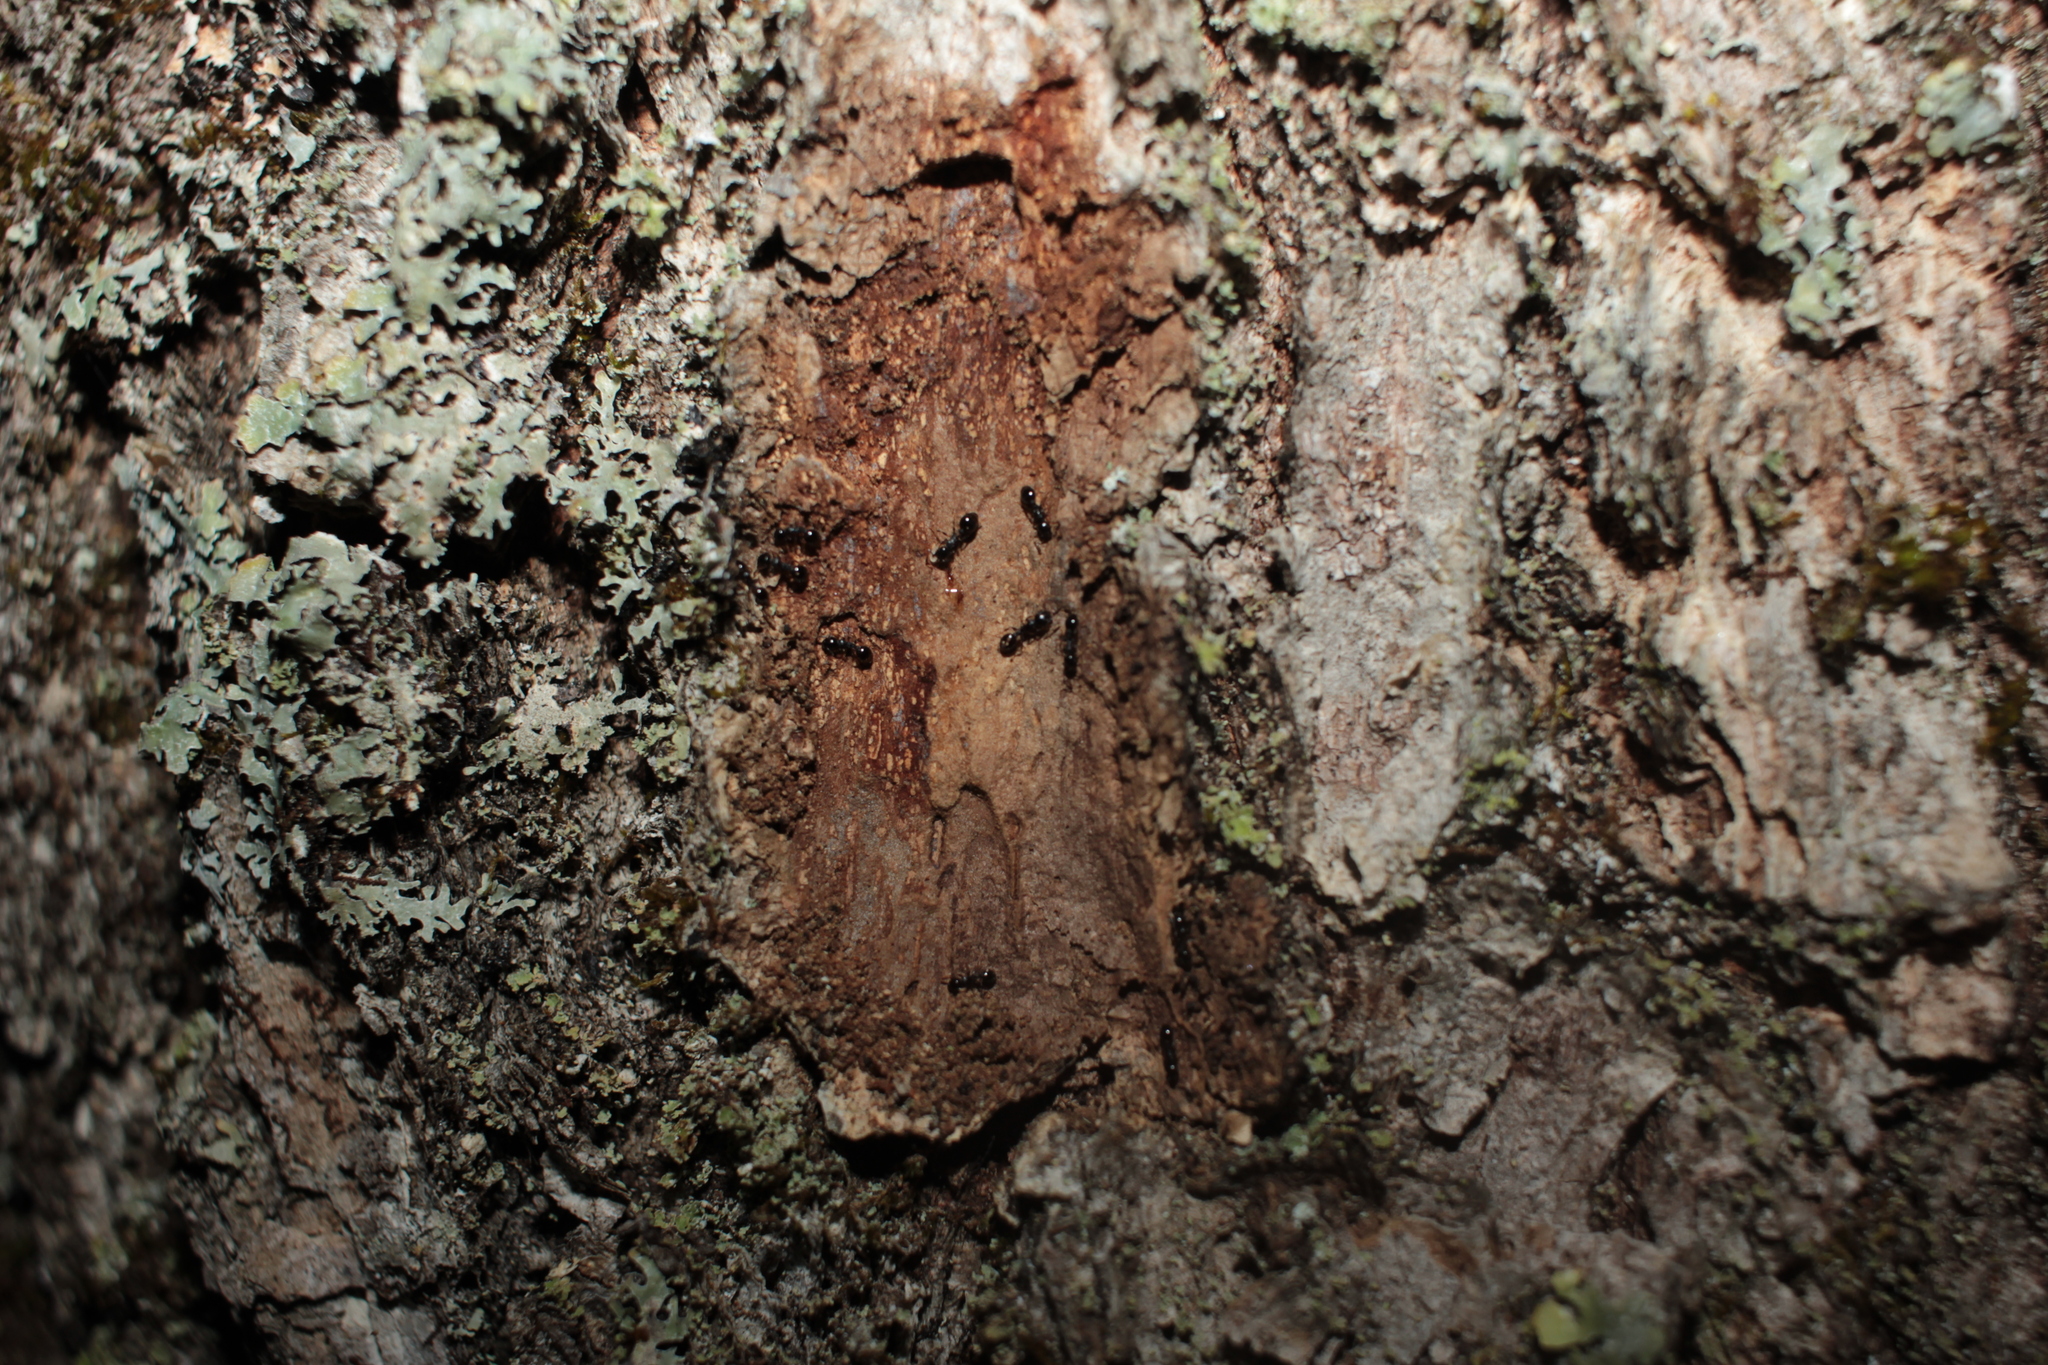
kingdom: Animalia
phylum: Arthropoda
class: Insecta
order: Hymenoptera
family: Formicidae
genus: Temnothorax
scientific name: Temnothorax
